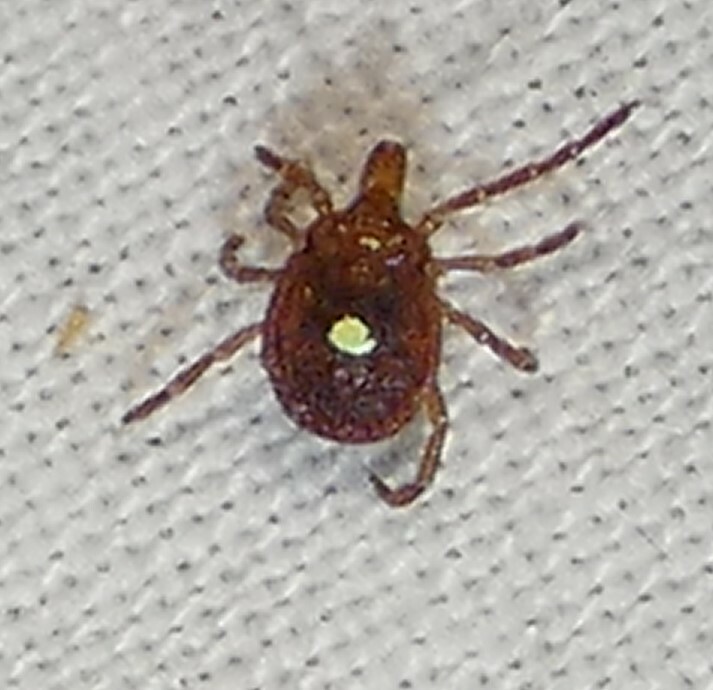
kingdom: Animalia
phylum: Arthropoda
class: Arachnida
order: Ixodida
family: Ixodidae
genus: Amblyomma
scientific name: Amblyomma americanum
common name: Lone star tick
